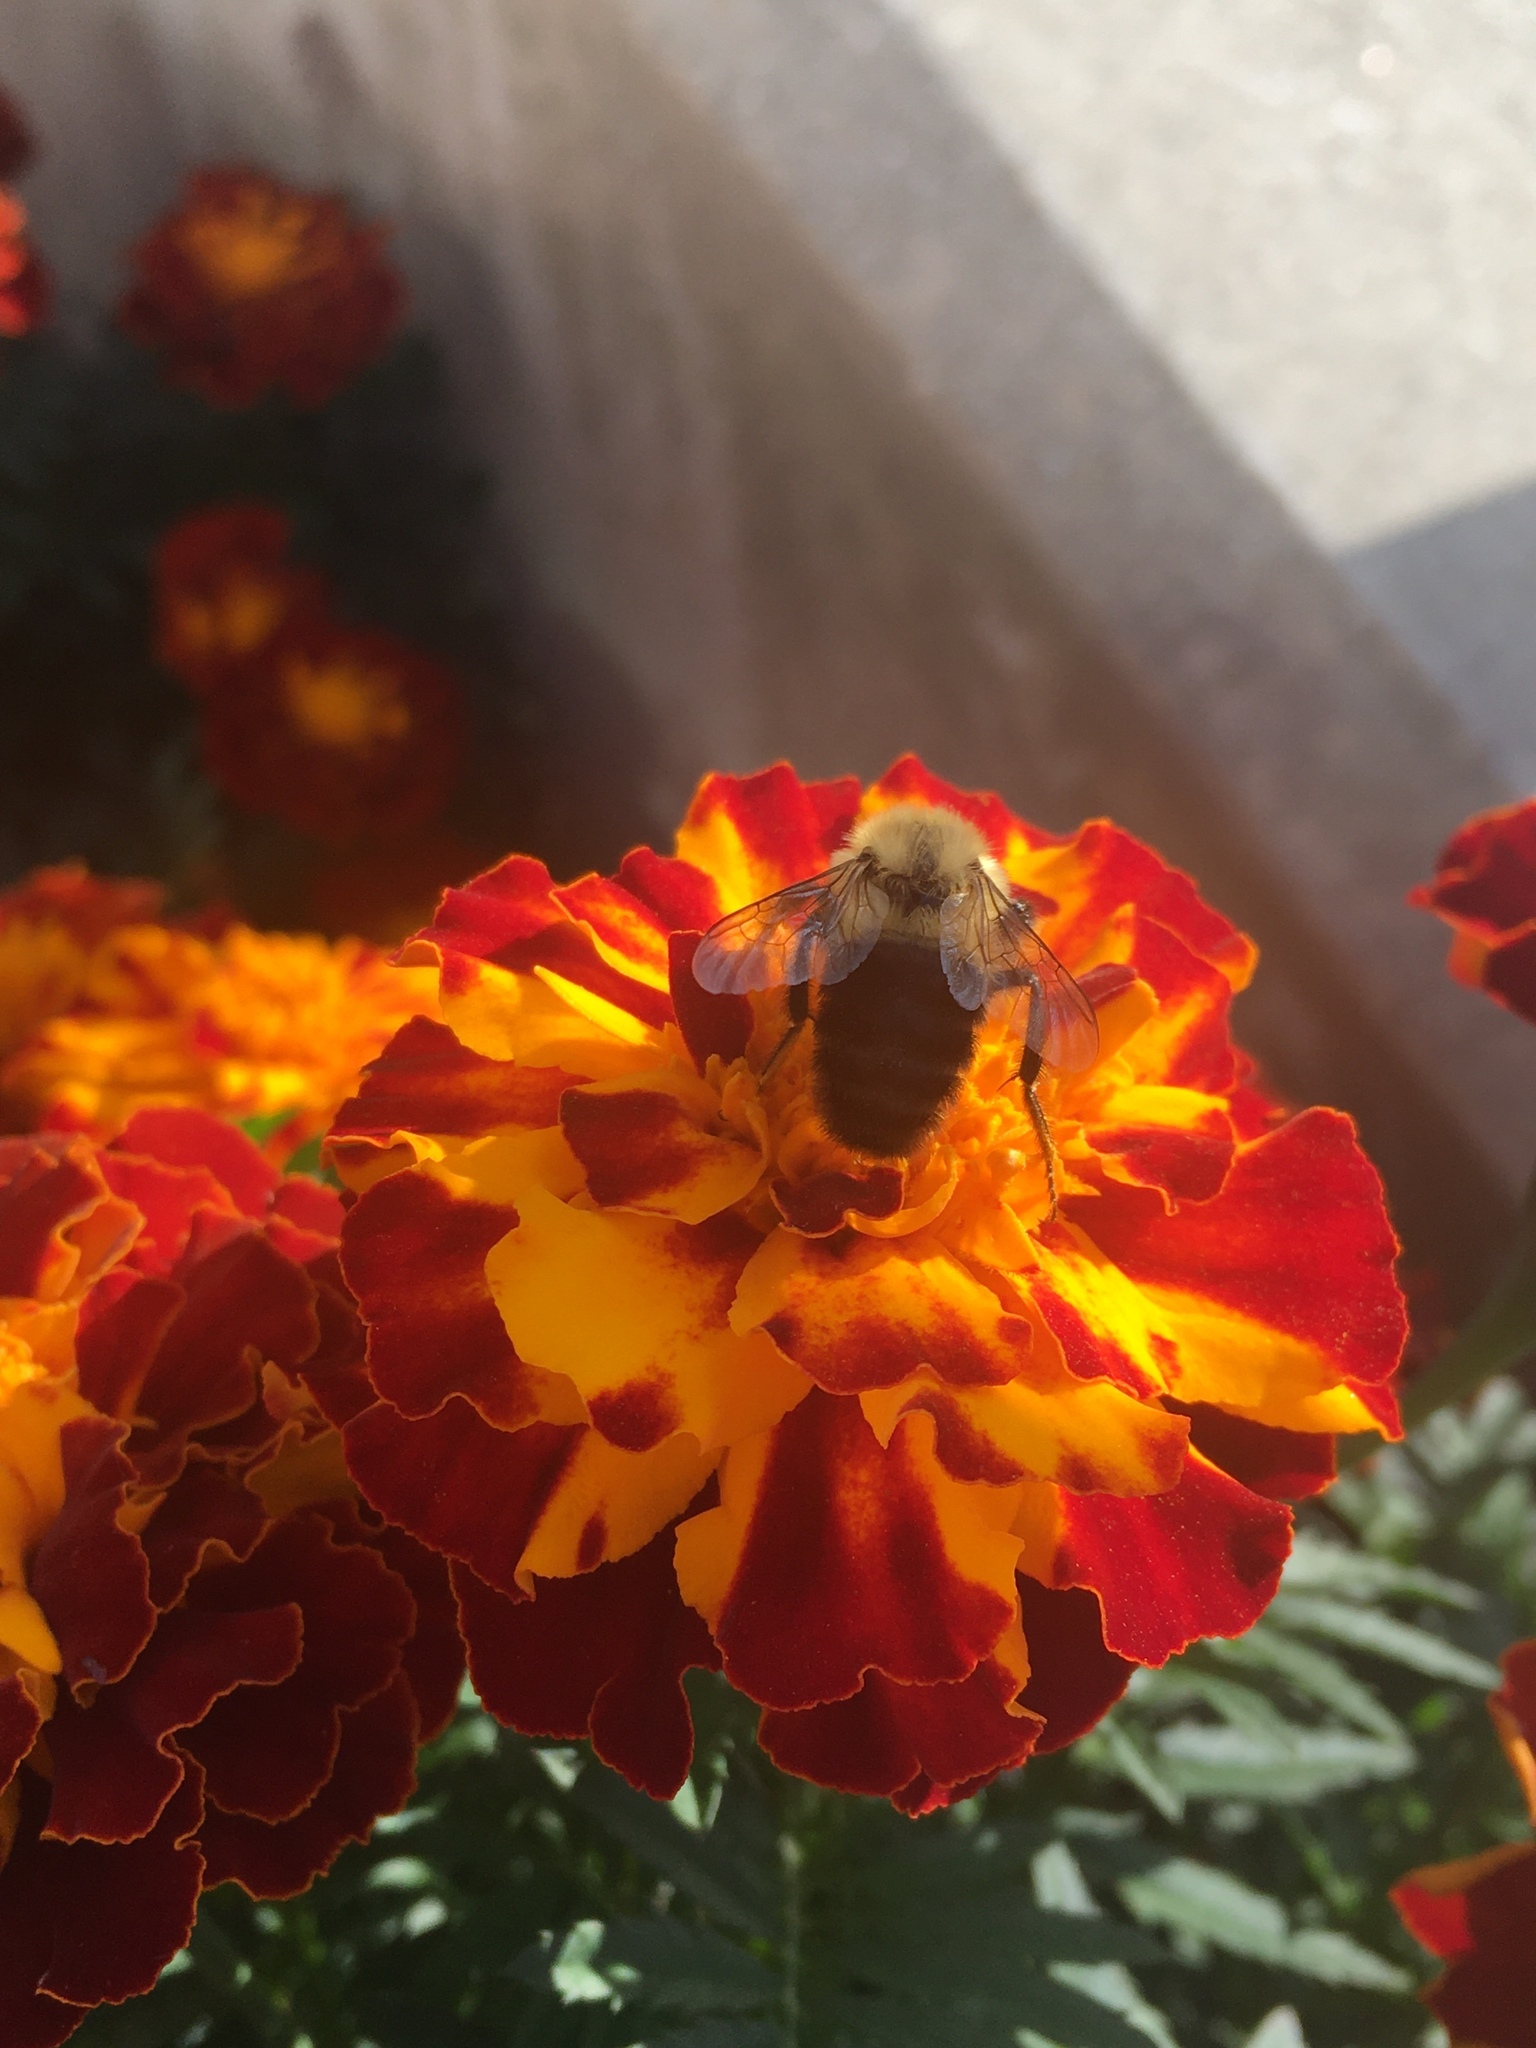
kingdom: Animalia
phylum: Arthropoda
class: Insecta
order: Hymenoptera
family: Apidae
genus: Bombus
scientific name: Bombus impatiens
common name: Common eastern bumble bee
